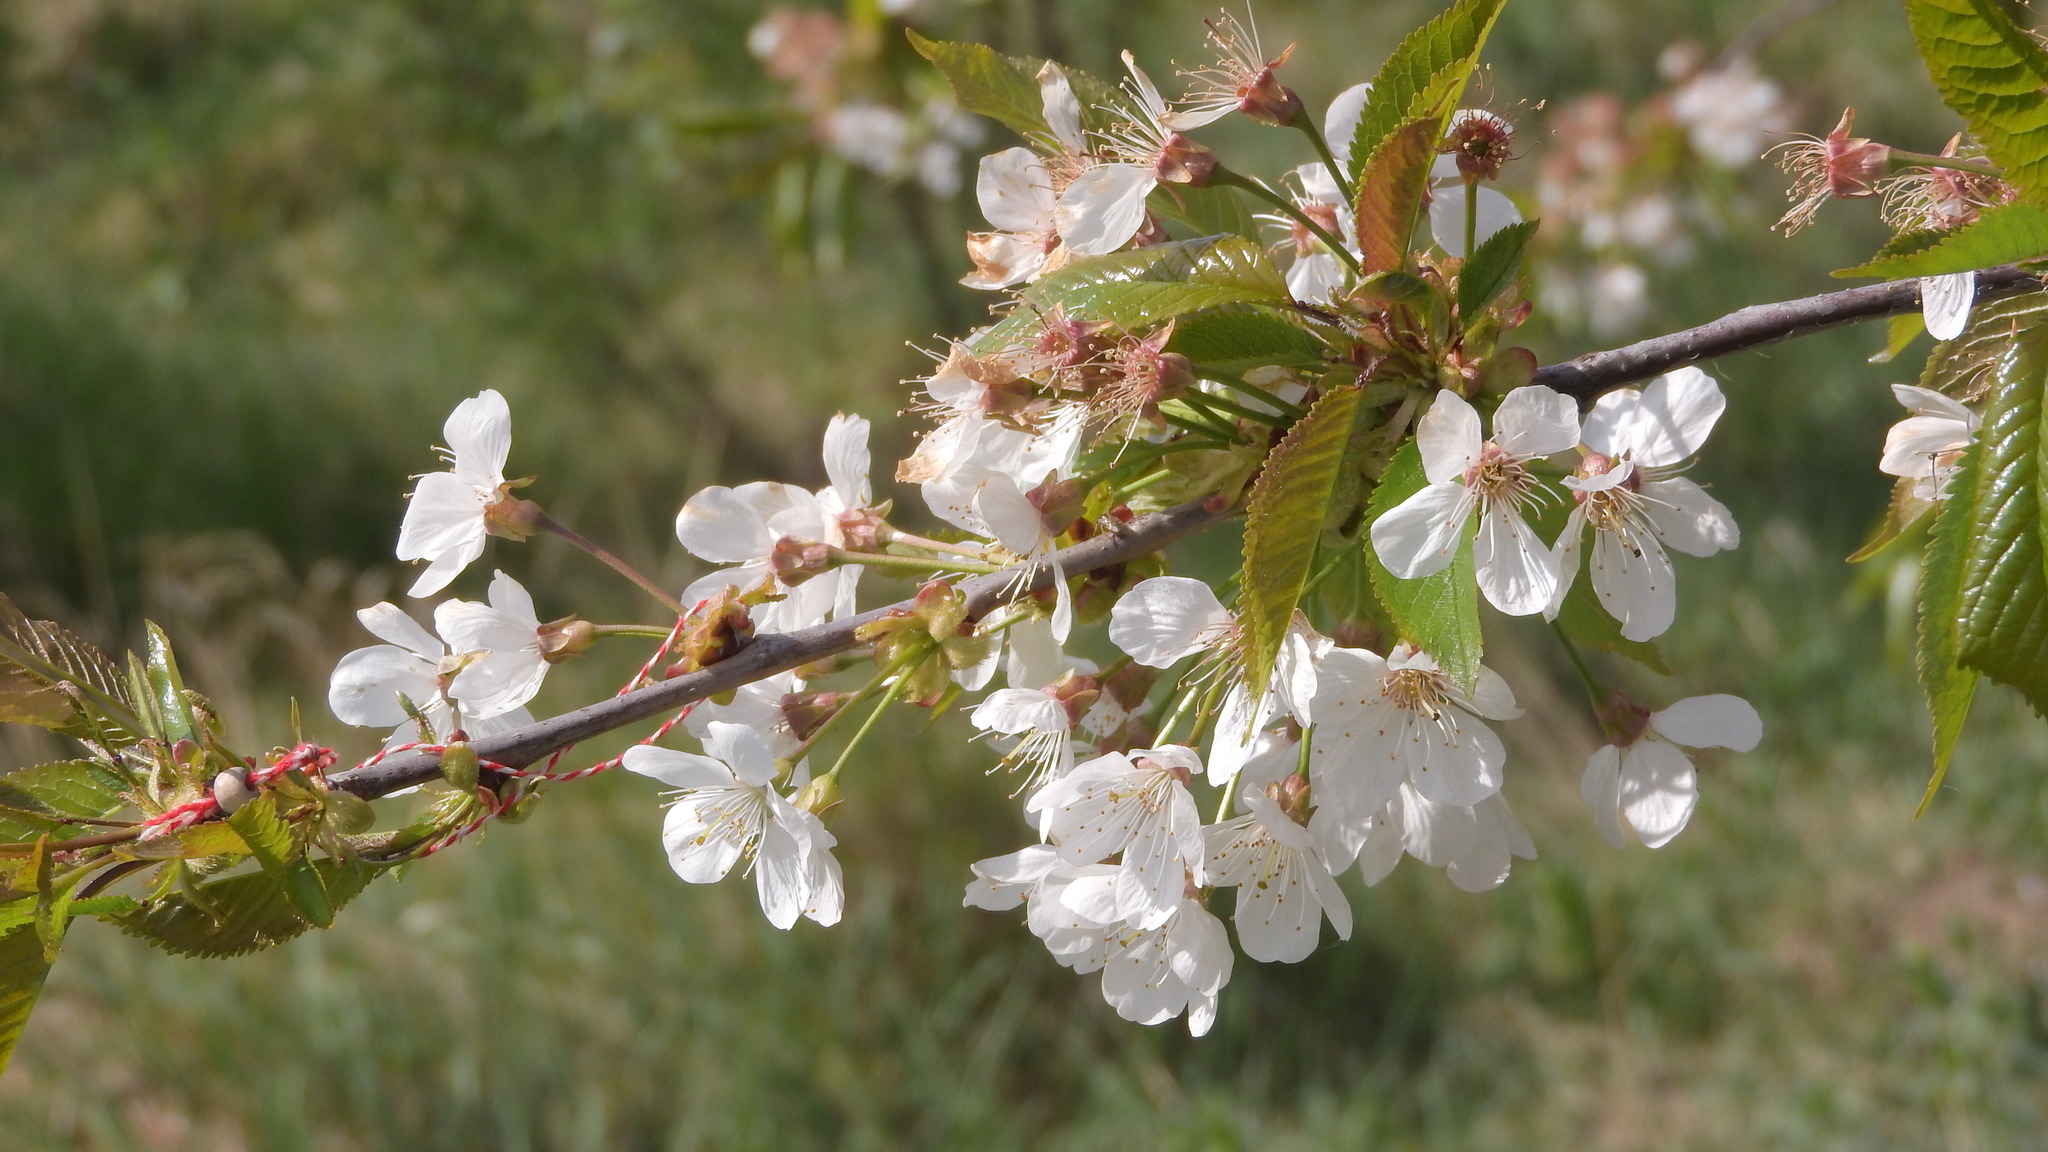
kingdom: Plantae
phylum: Tracheophyta
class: Magnoliopsida
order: Rosales
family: Rosaceae
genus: Prunus
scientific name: Prunus avium
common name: Sweet cherry
